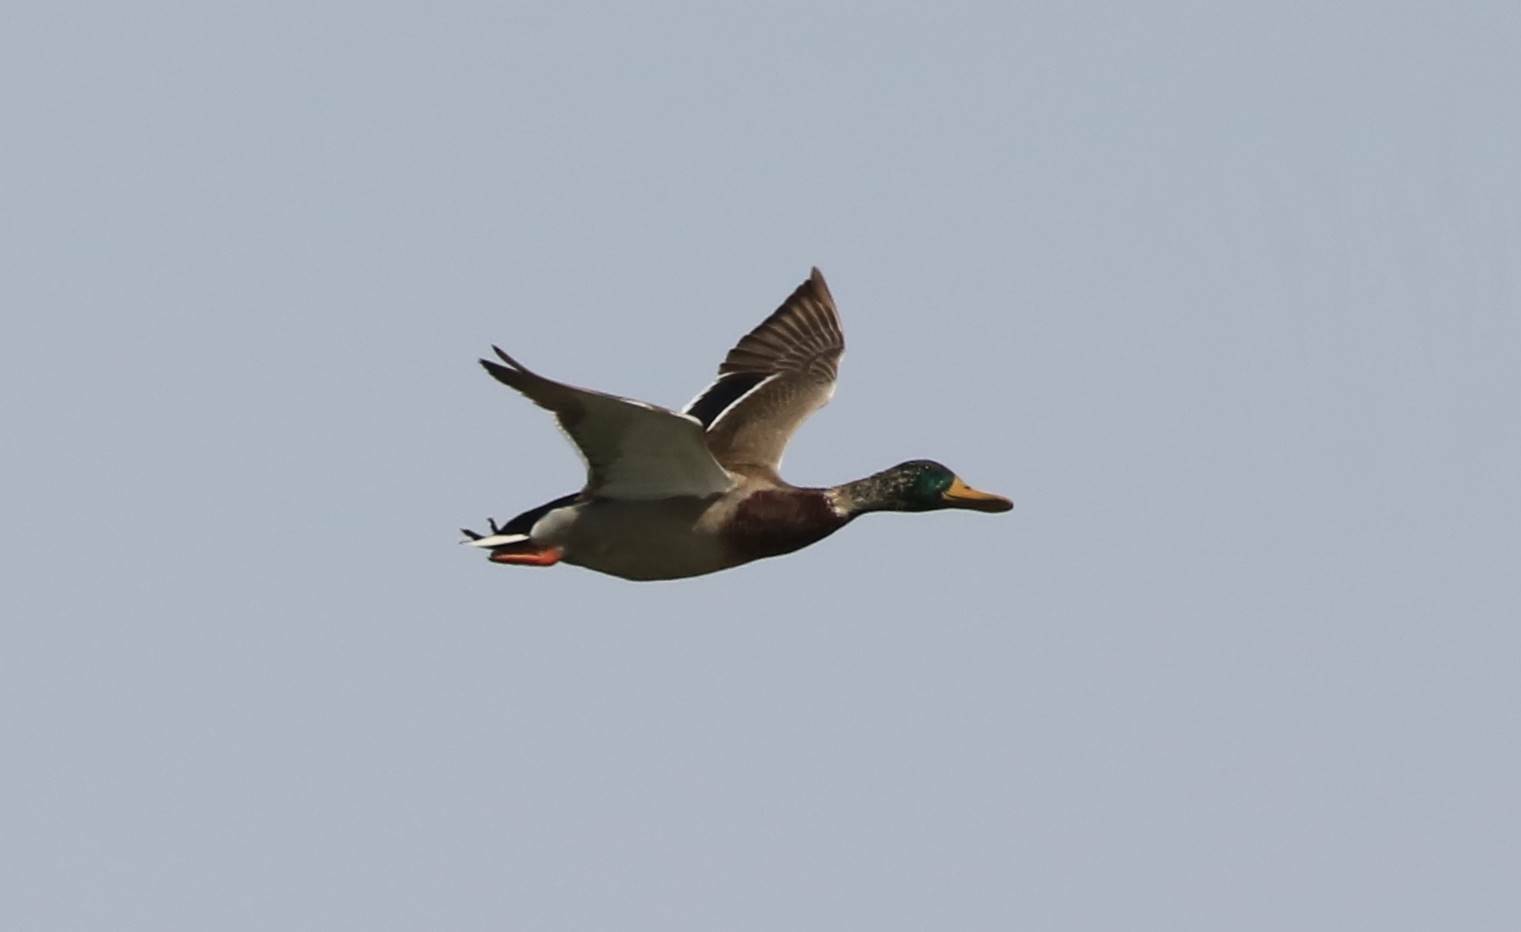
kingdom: Animalia
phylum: Chordata
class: Aves
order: Anseriformes
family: Anatidae
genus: Anas
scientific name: Anas platyrhynchos
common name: Mallard
